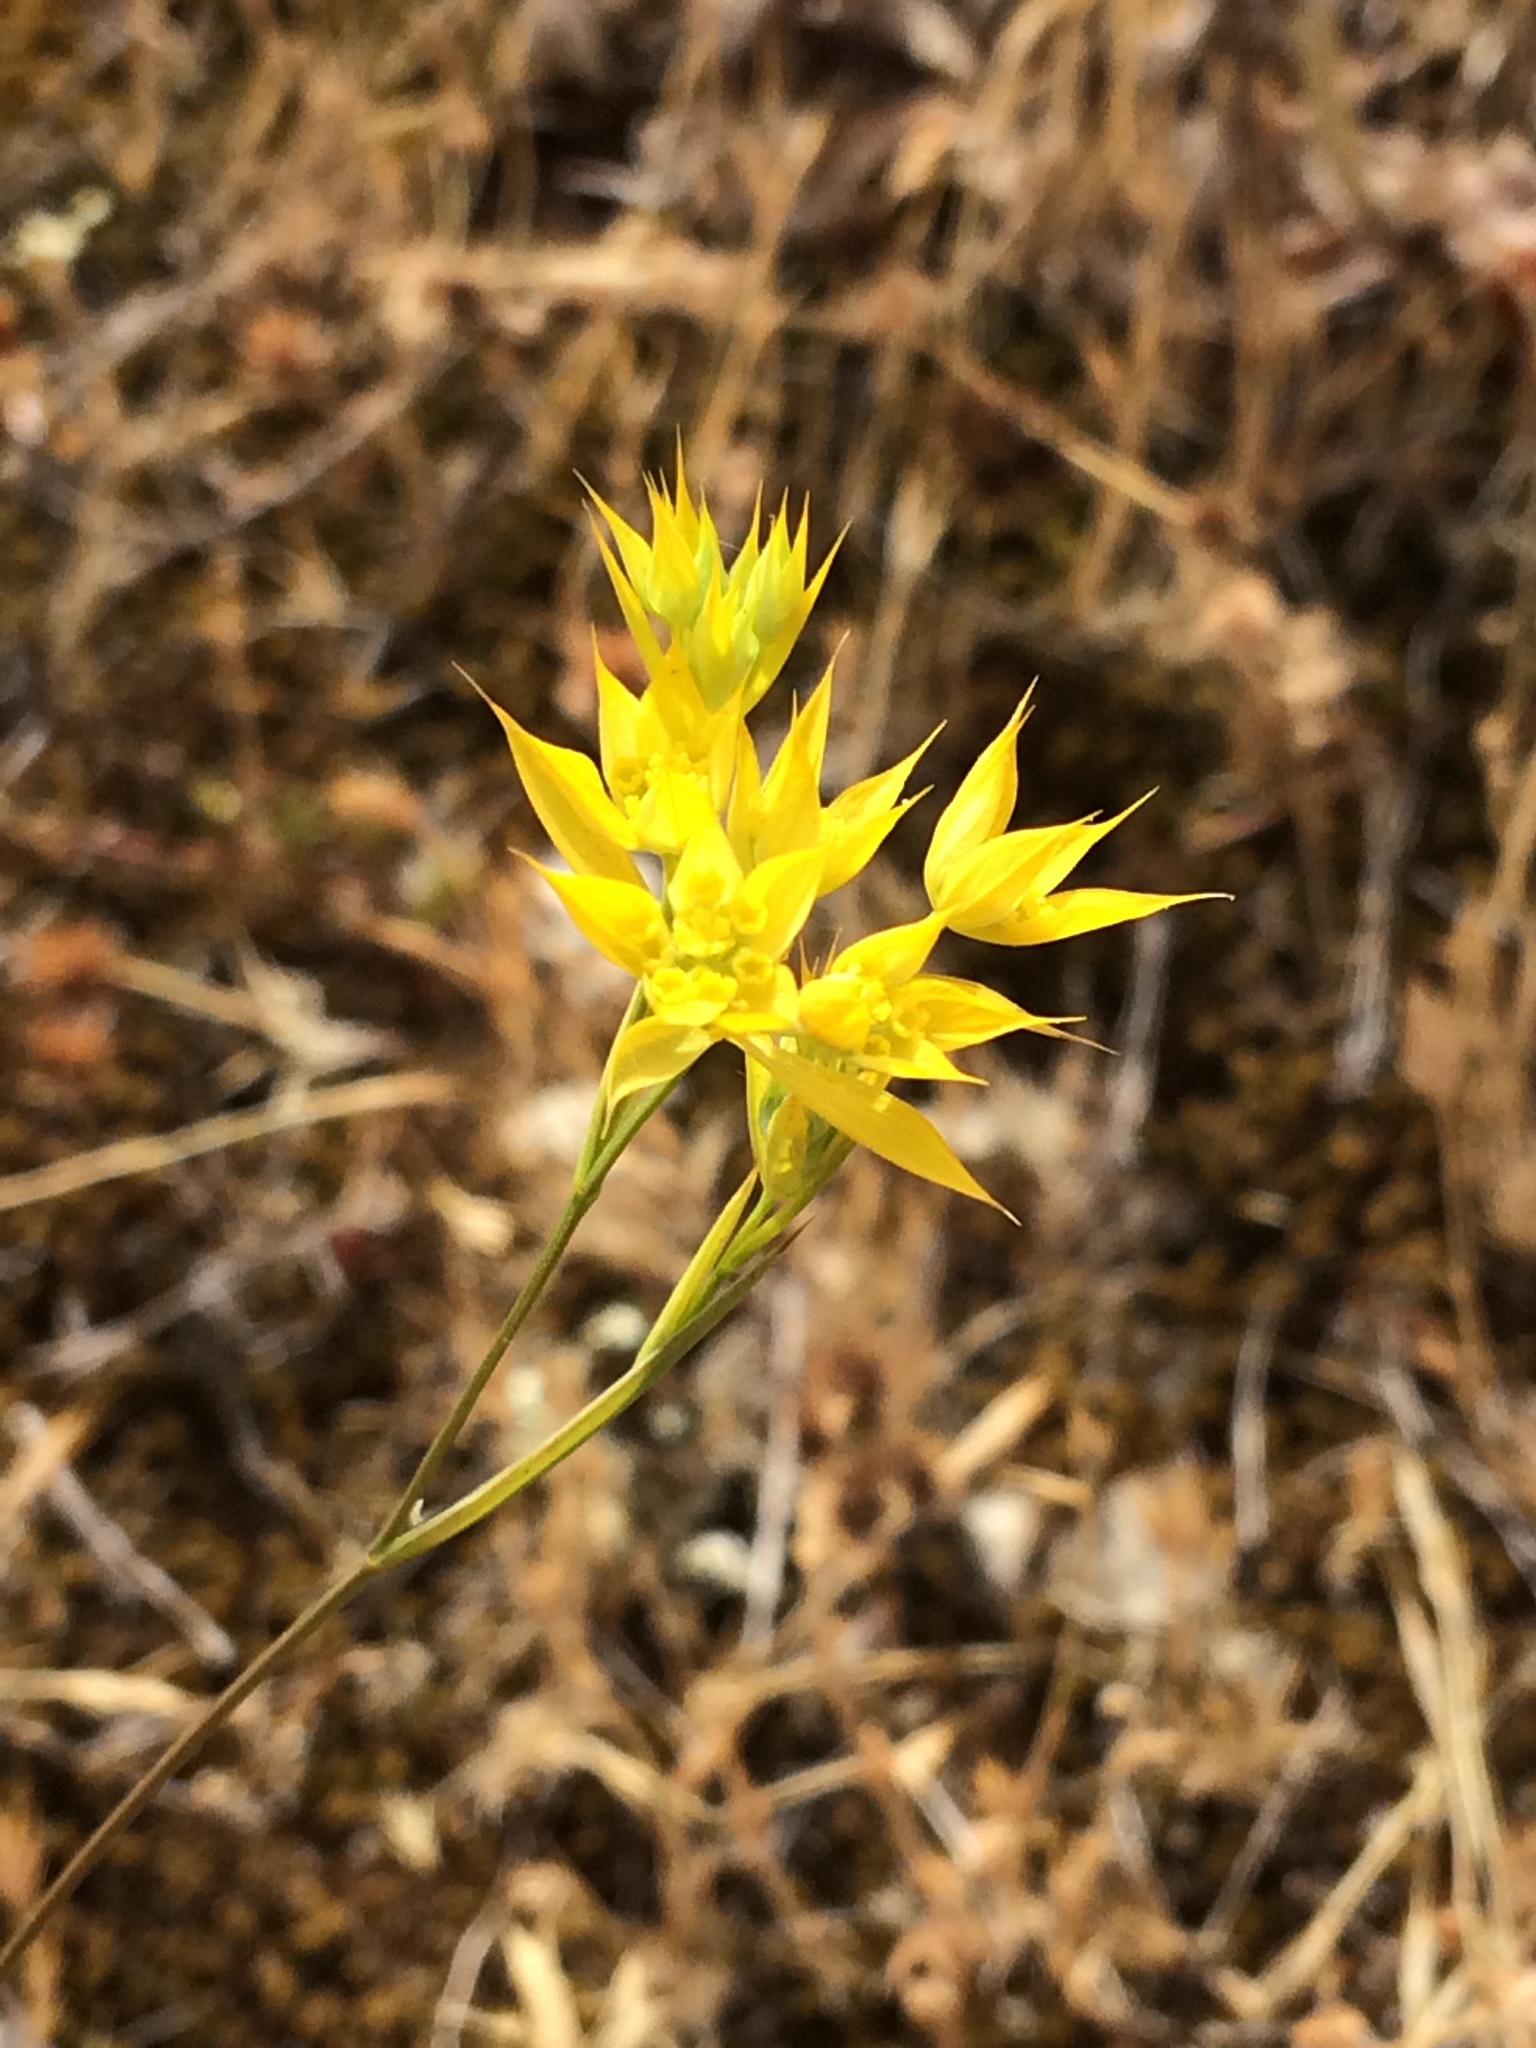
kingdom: Plantae
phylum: Tracheophyta
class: Magnoliopsida
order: Apiales
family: Apiaceae
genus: Bupleurum
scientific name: Bupleurum baldense
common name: Small hare's-ear
